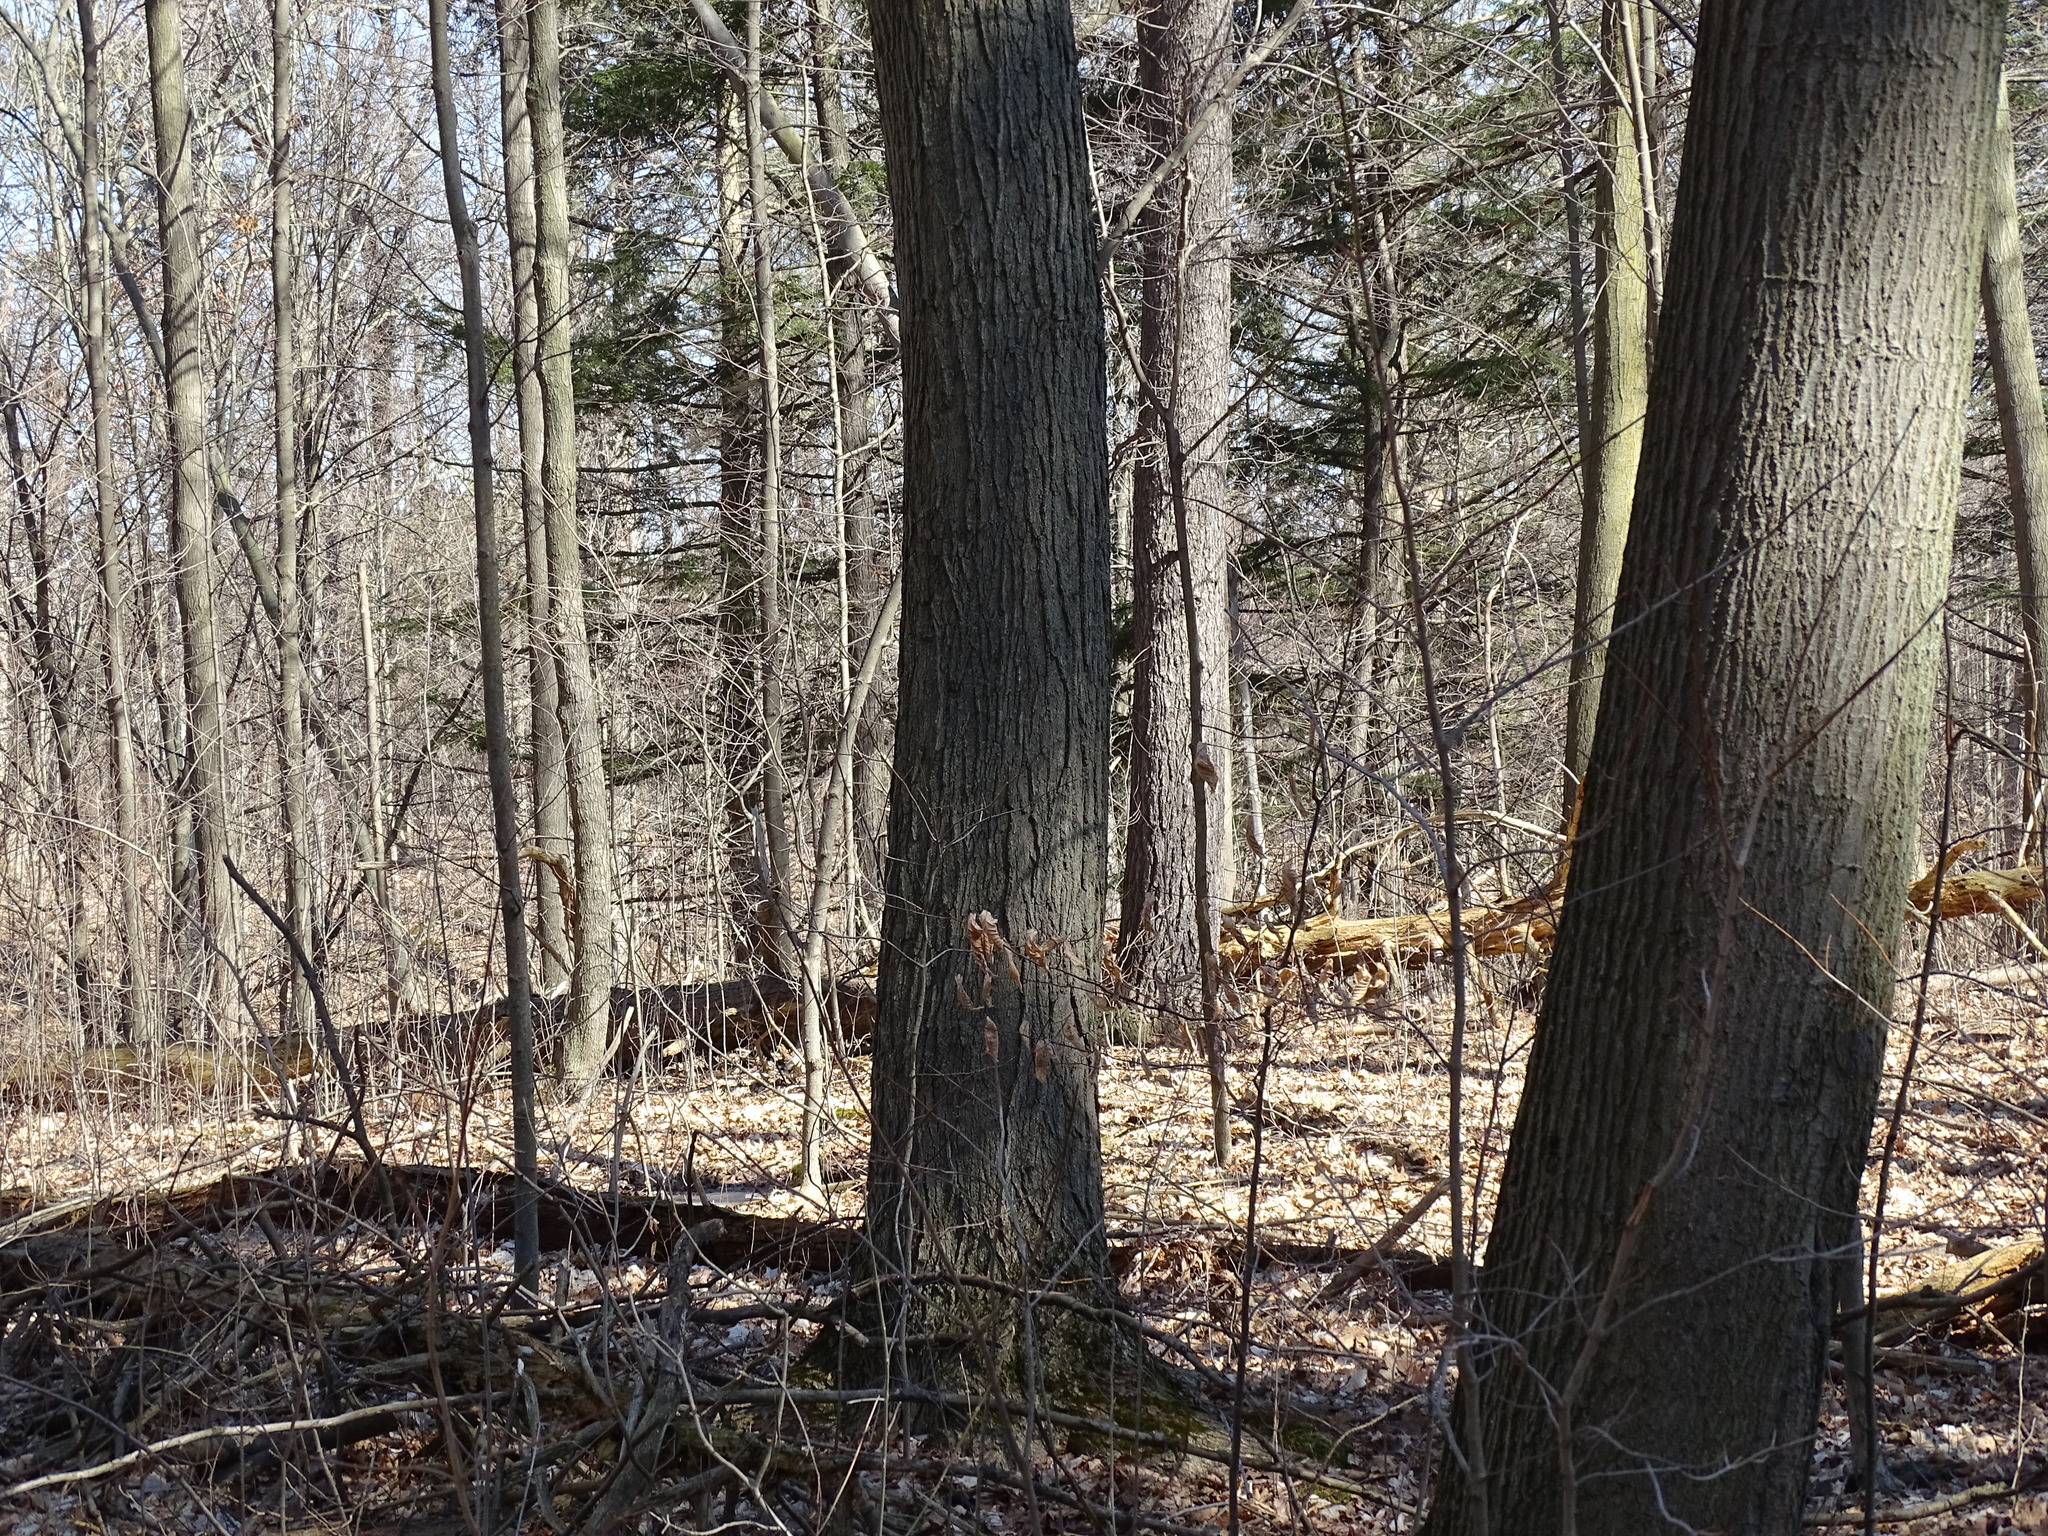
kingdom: Plantae
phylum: Tracheophyta
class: Magnoliopsida
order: Sapindales
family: Sapindaceae
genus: Acer
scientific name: Acer saccharum
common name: Sugar maple
